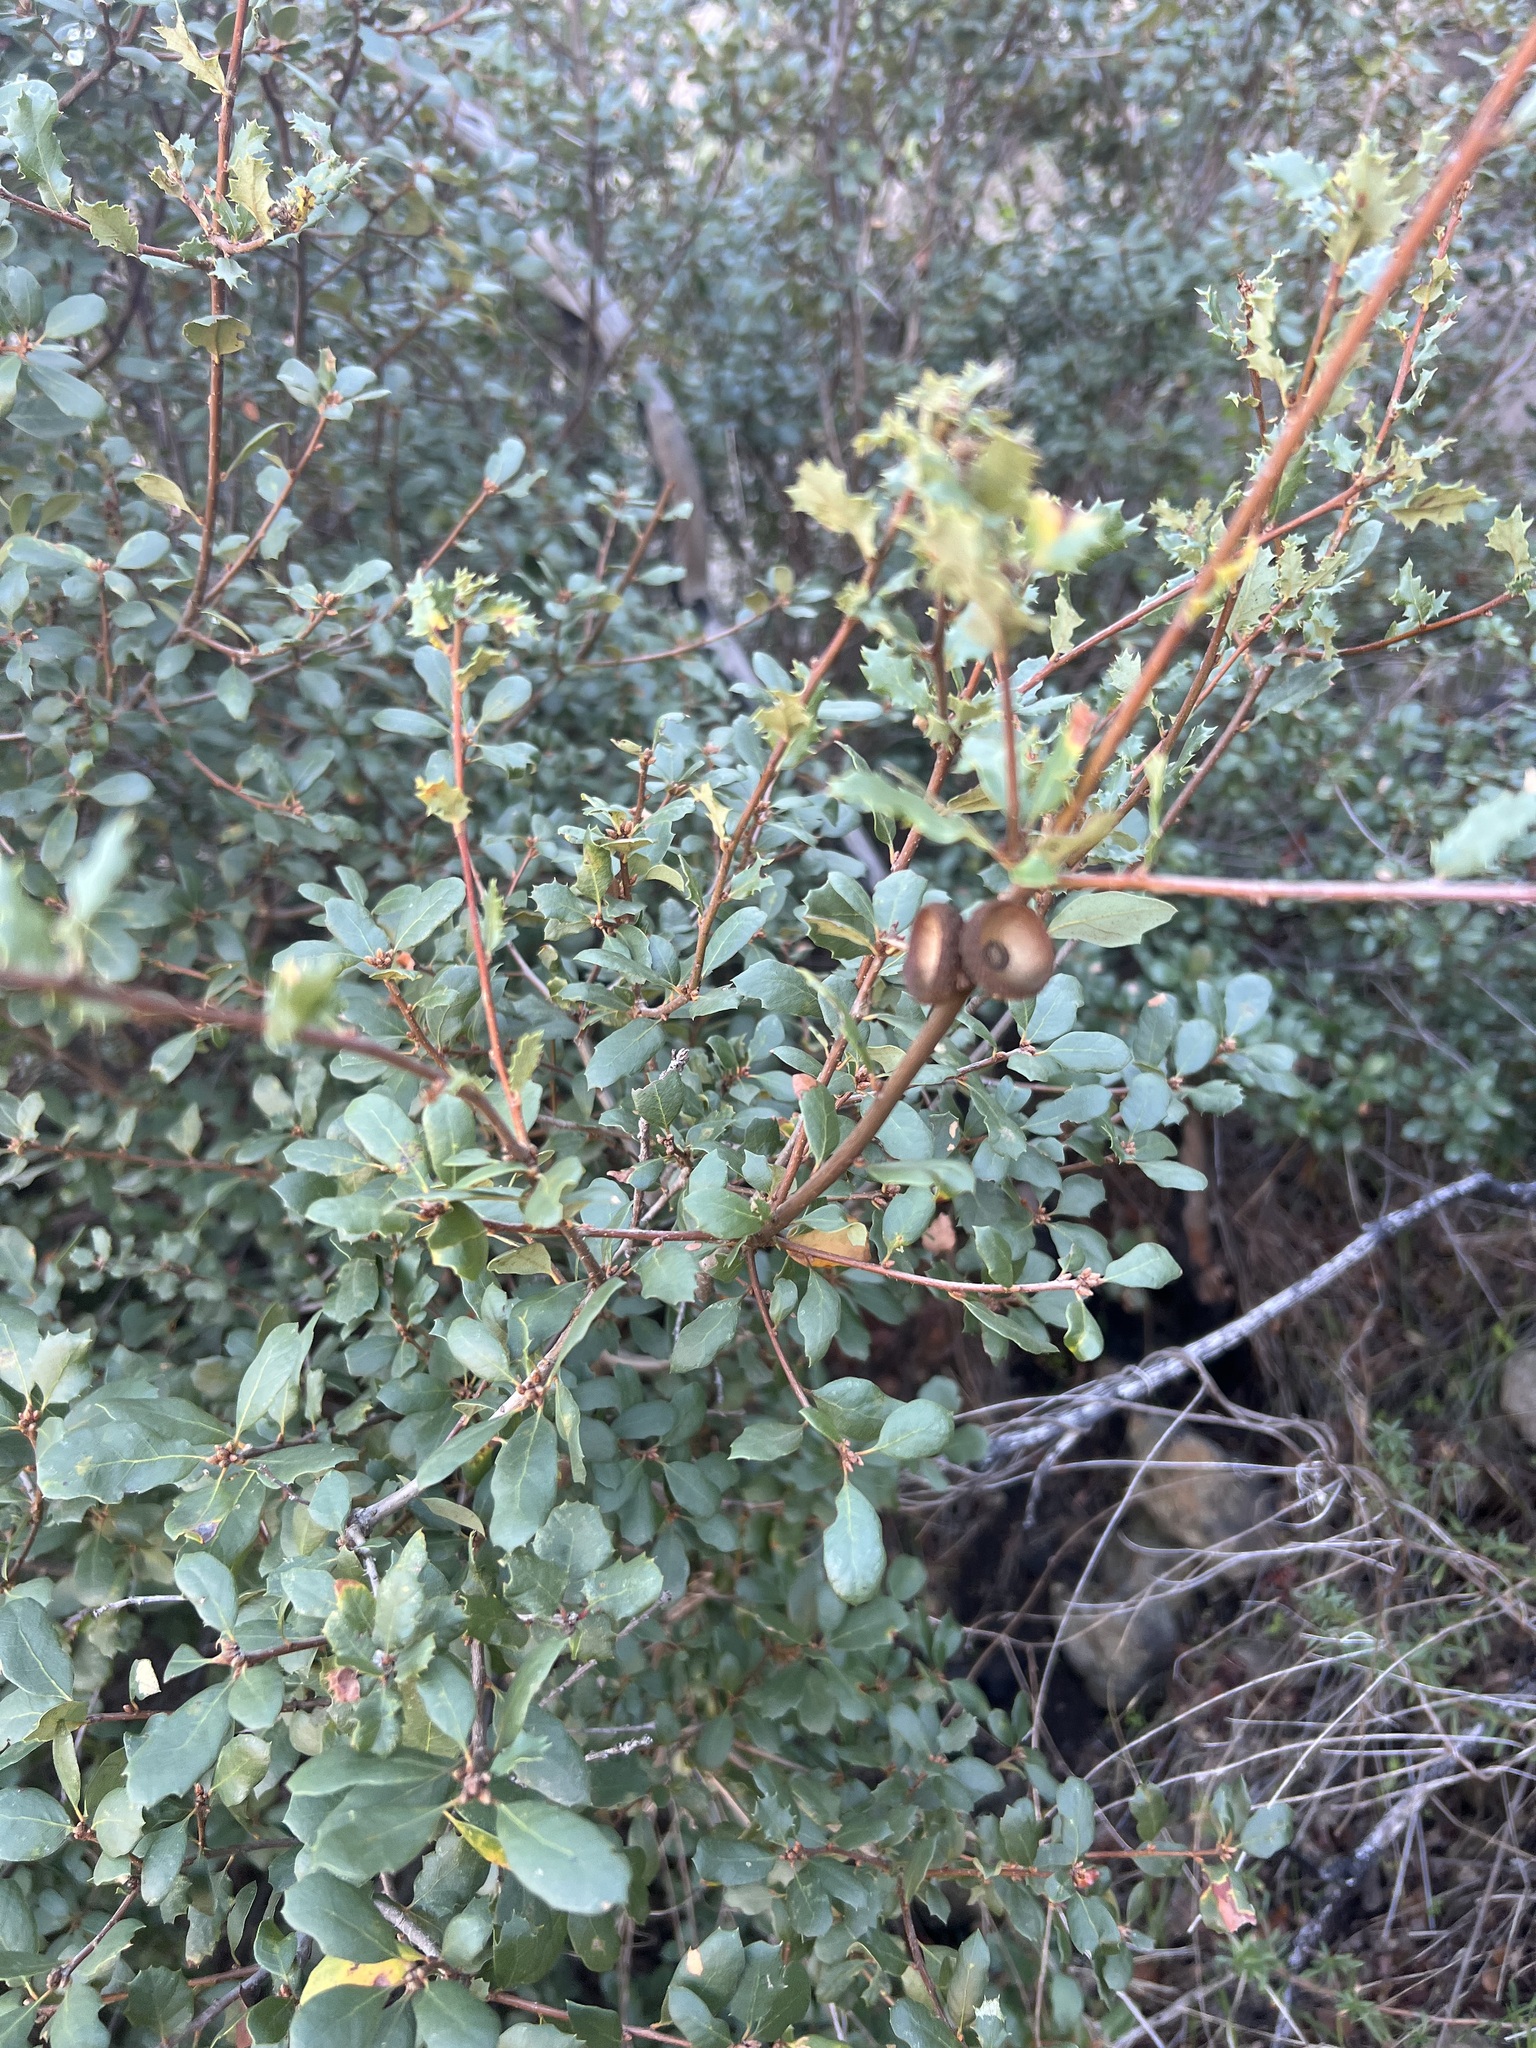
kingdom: Plantae
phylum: Tracheophyta
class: Magnoliopsida
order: Fagales
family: Fagaceae
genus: Quercus
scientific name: Quercus berberidifolia
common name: California scrub oak
